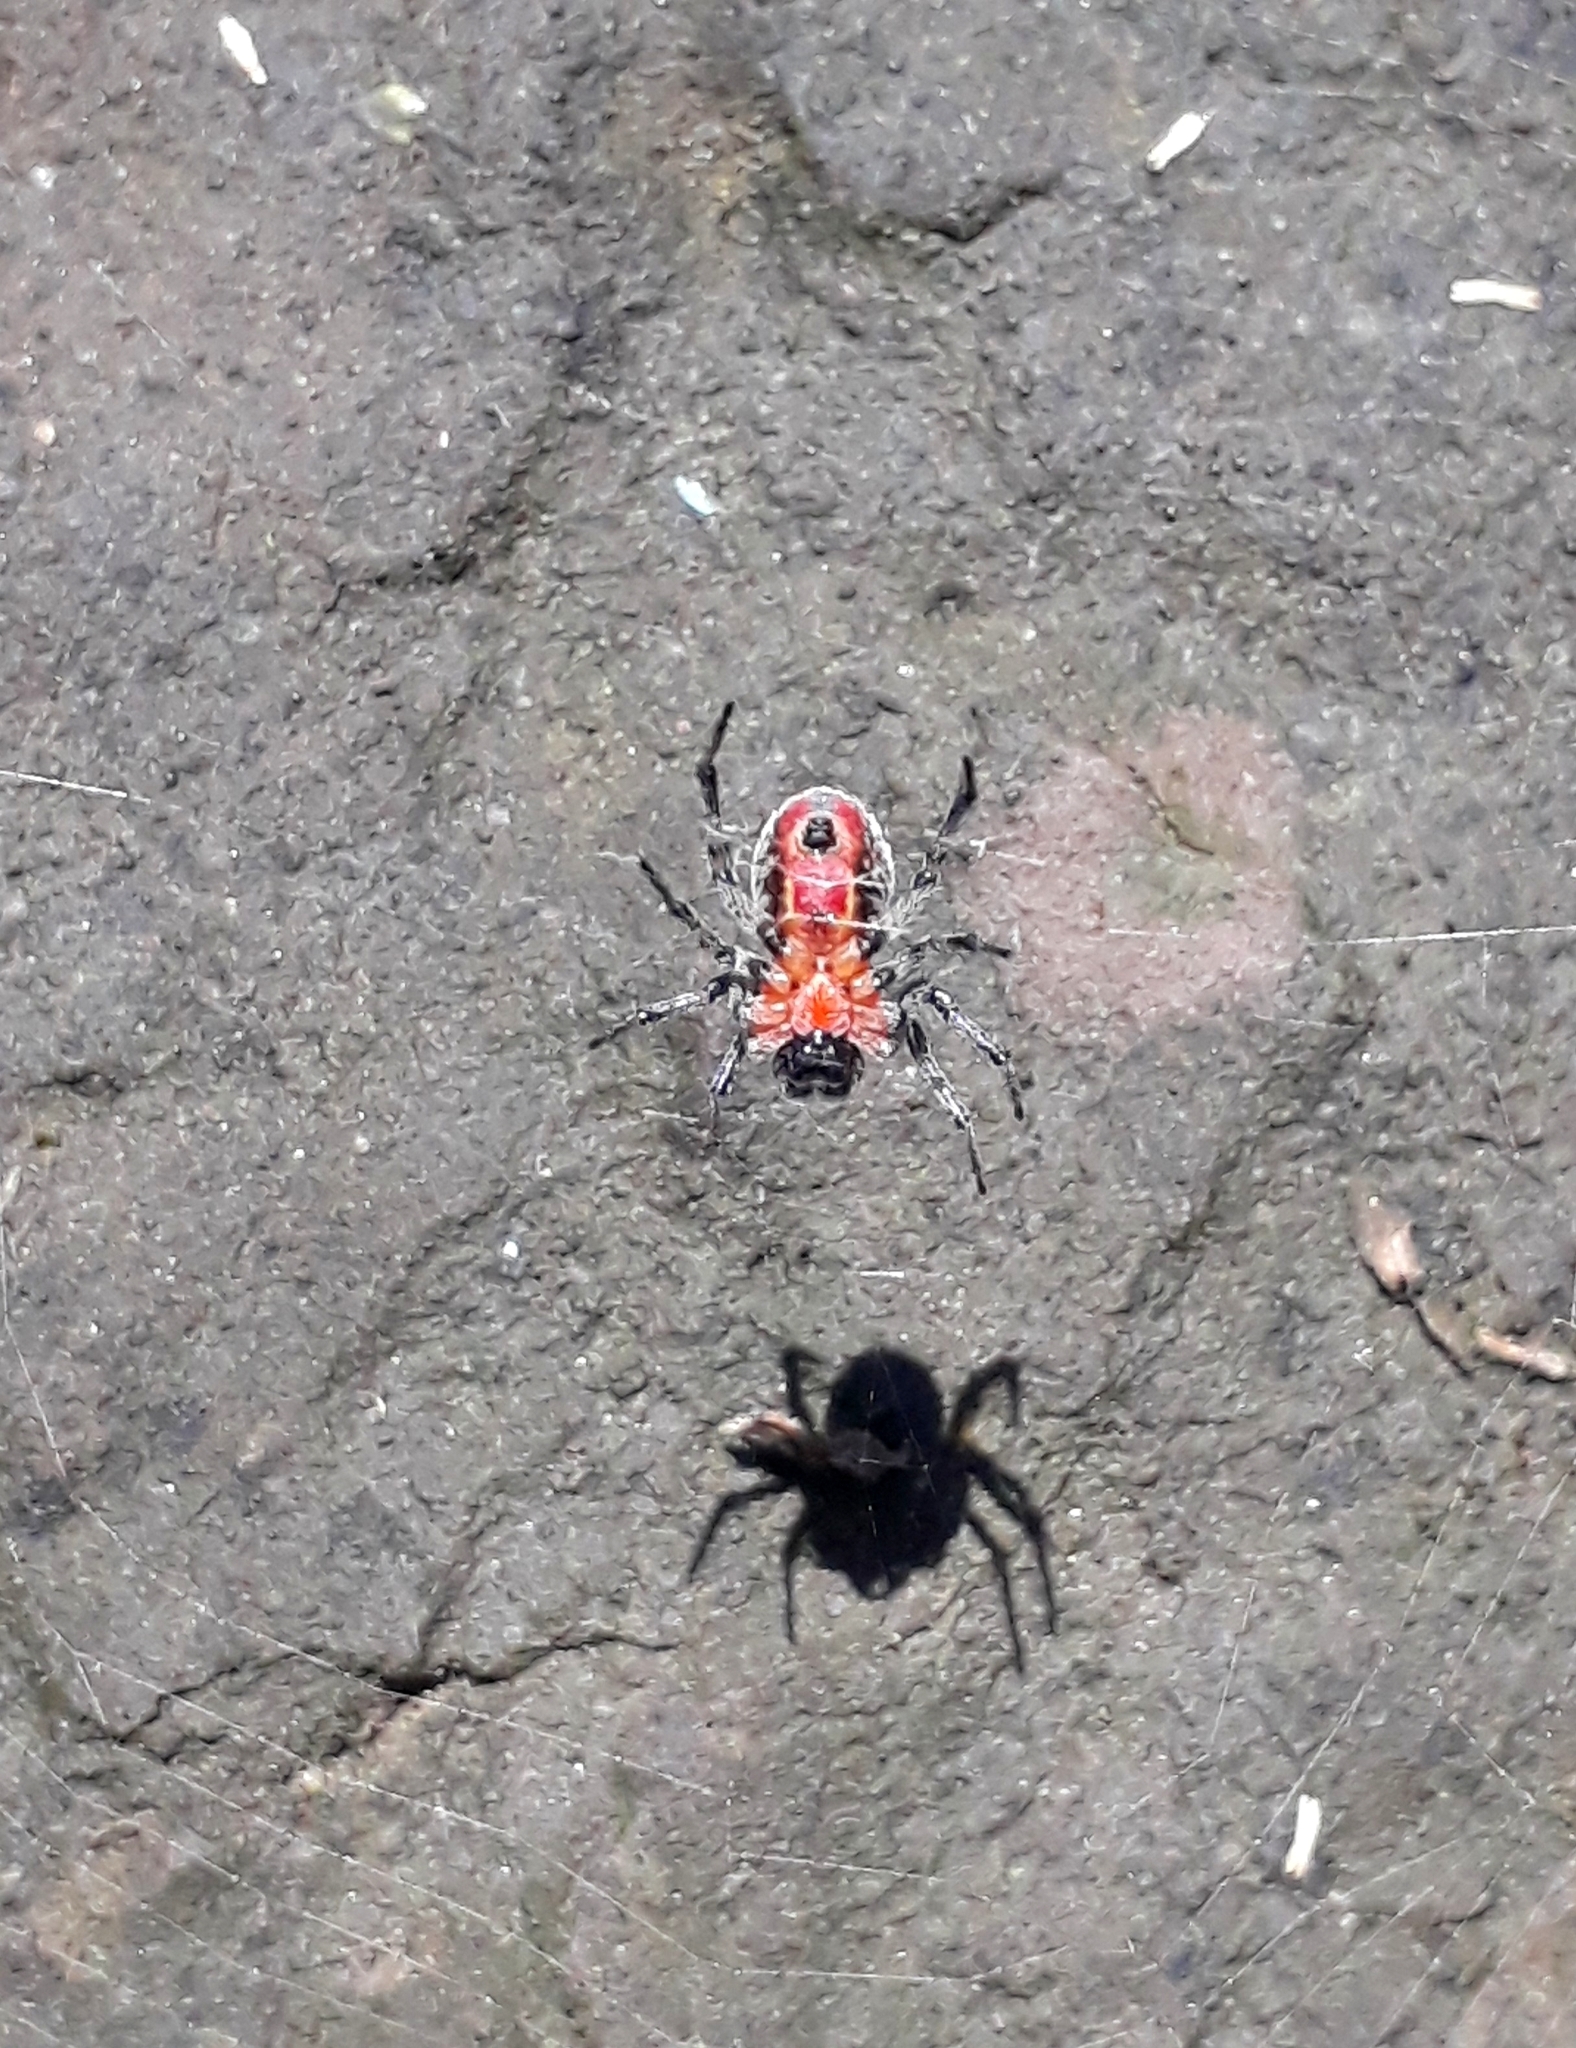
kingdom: Animalia
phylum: Arthropoda
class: Arachnida
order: Araneae
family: Araneidae
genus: Alpaida
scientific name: Alpaida versicolor
